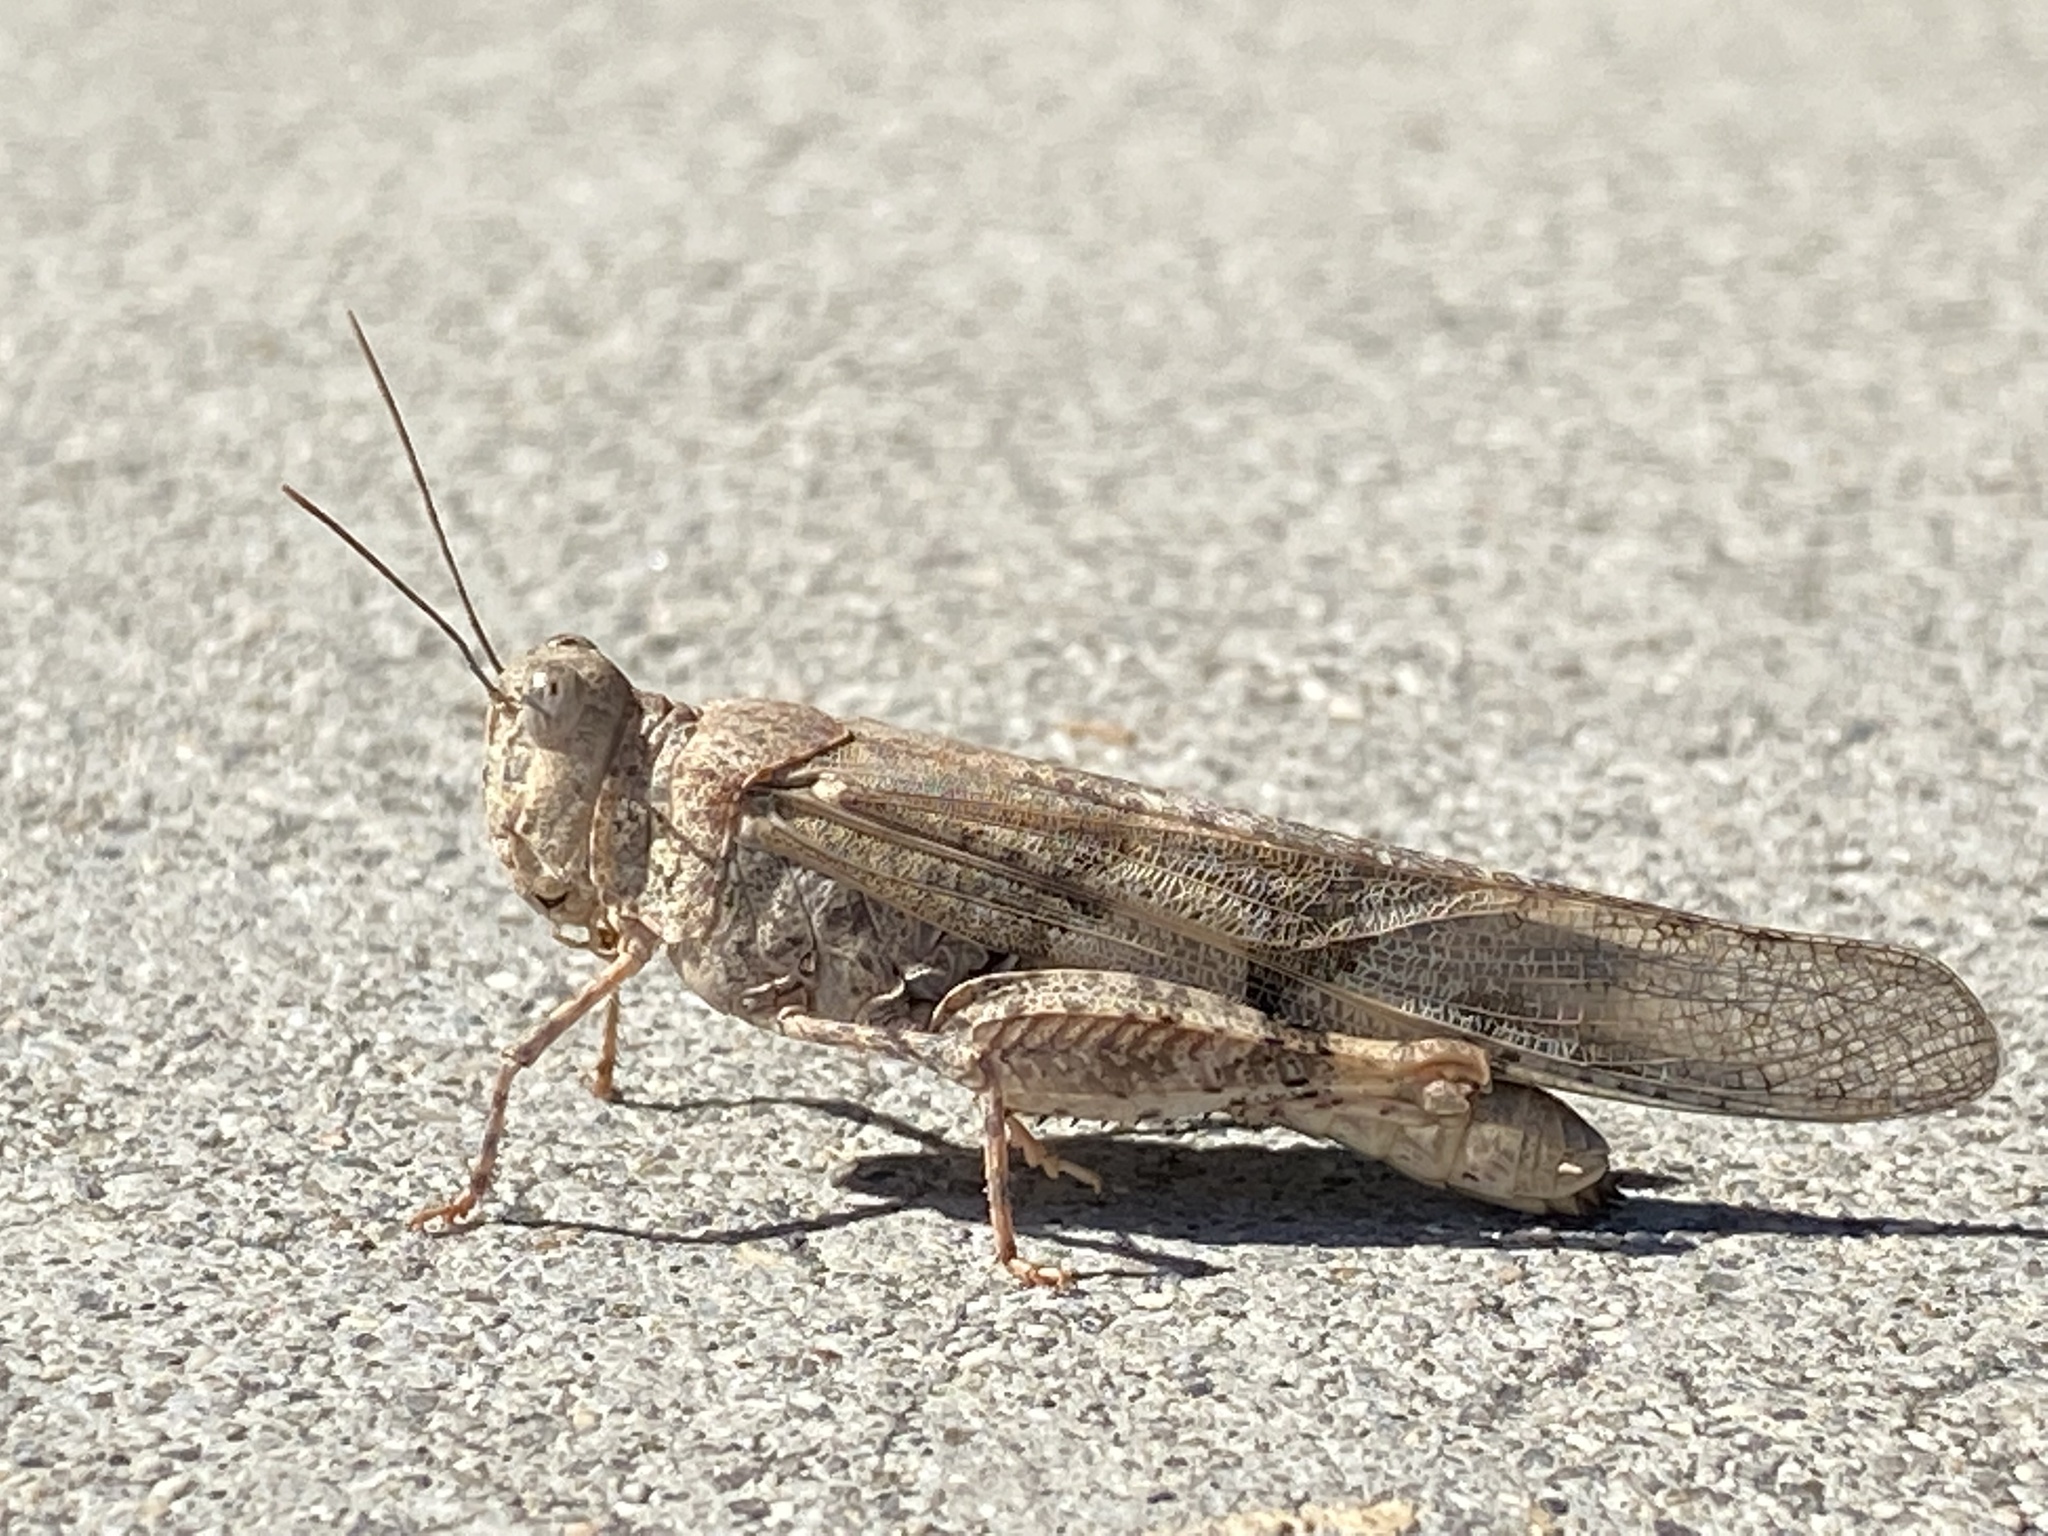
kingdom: Animalia
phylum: Arthropoda
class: Insecta
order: Orthoptera
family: Acrididae
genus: Trimerotropis
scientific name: Trimerotropis pallidipennis
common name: Pallid-winged grasshopper
